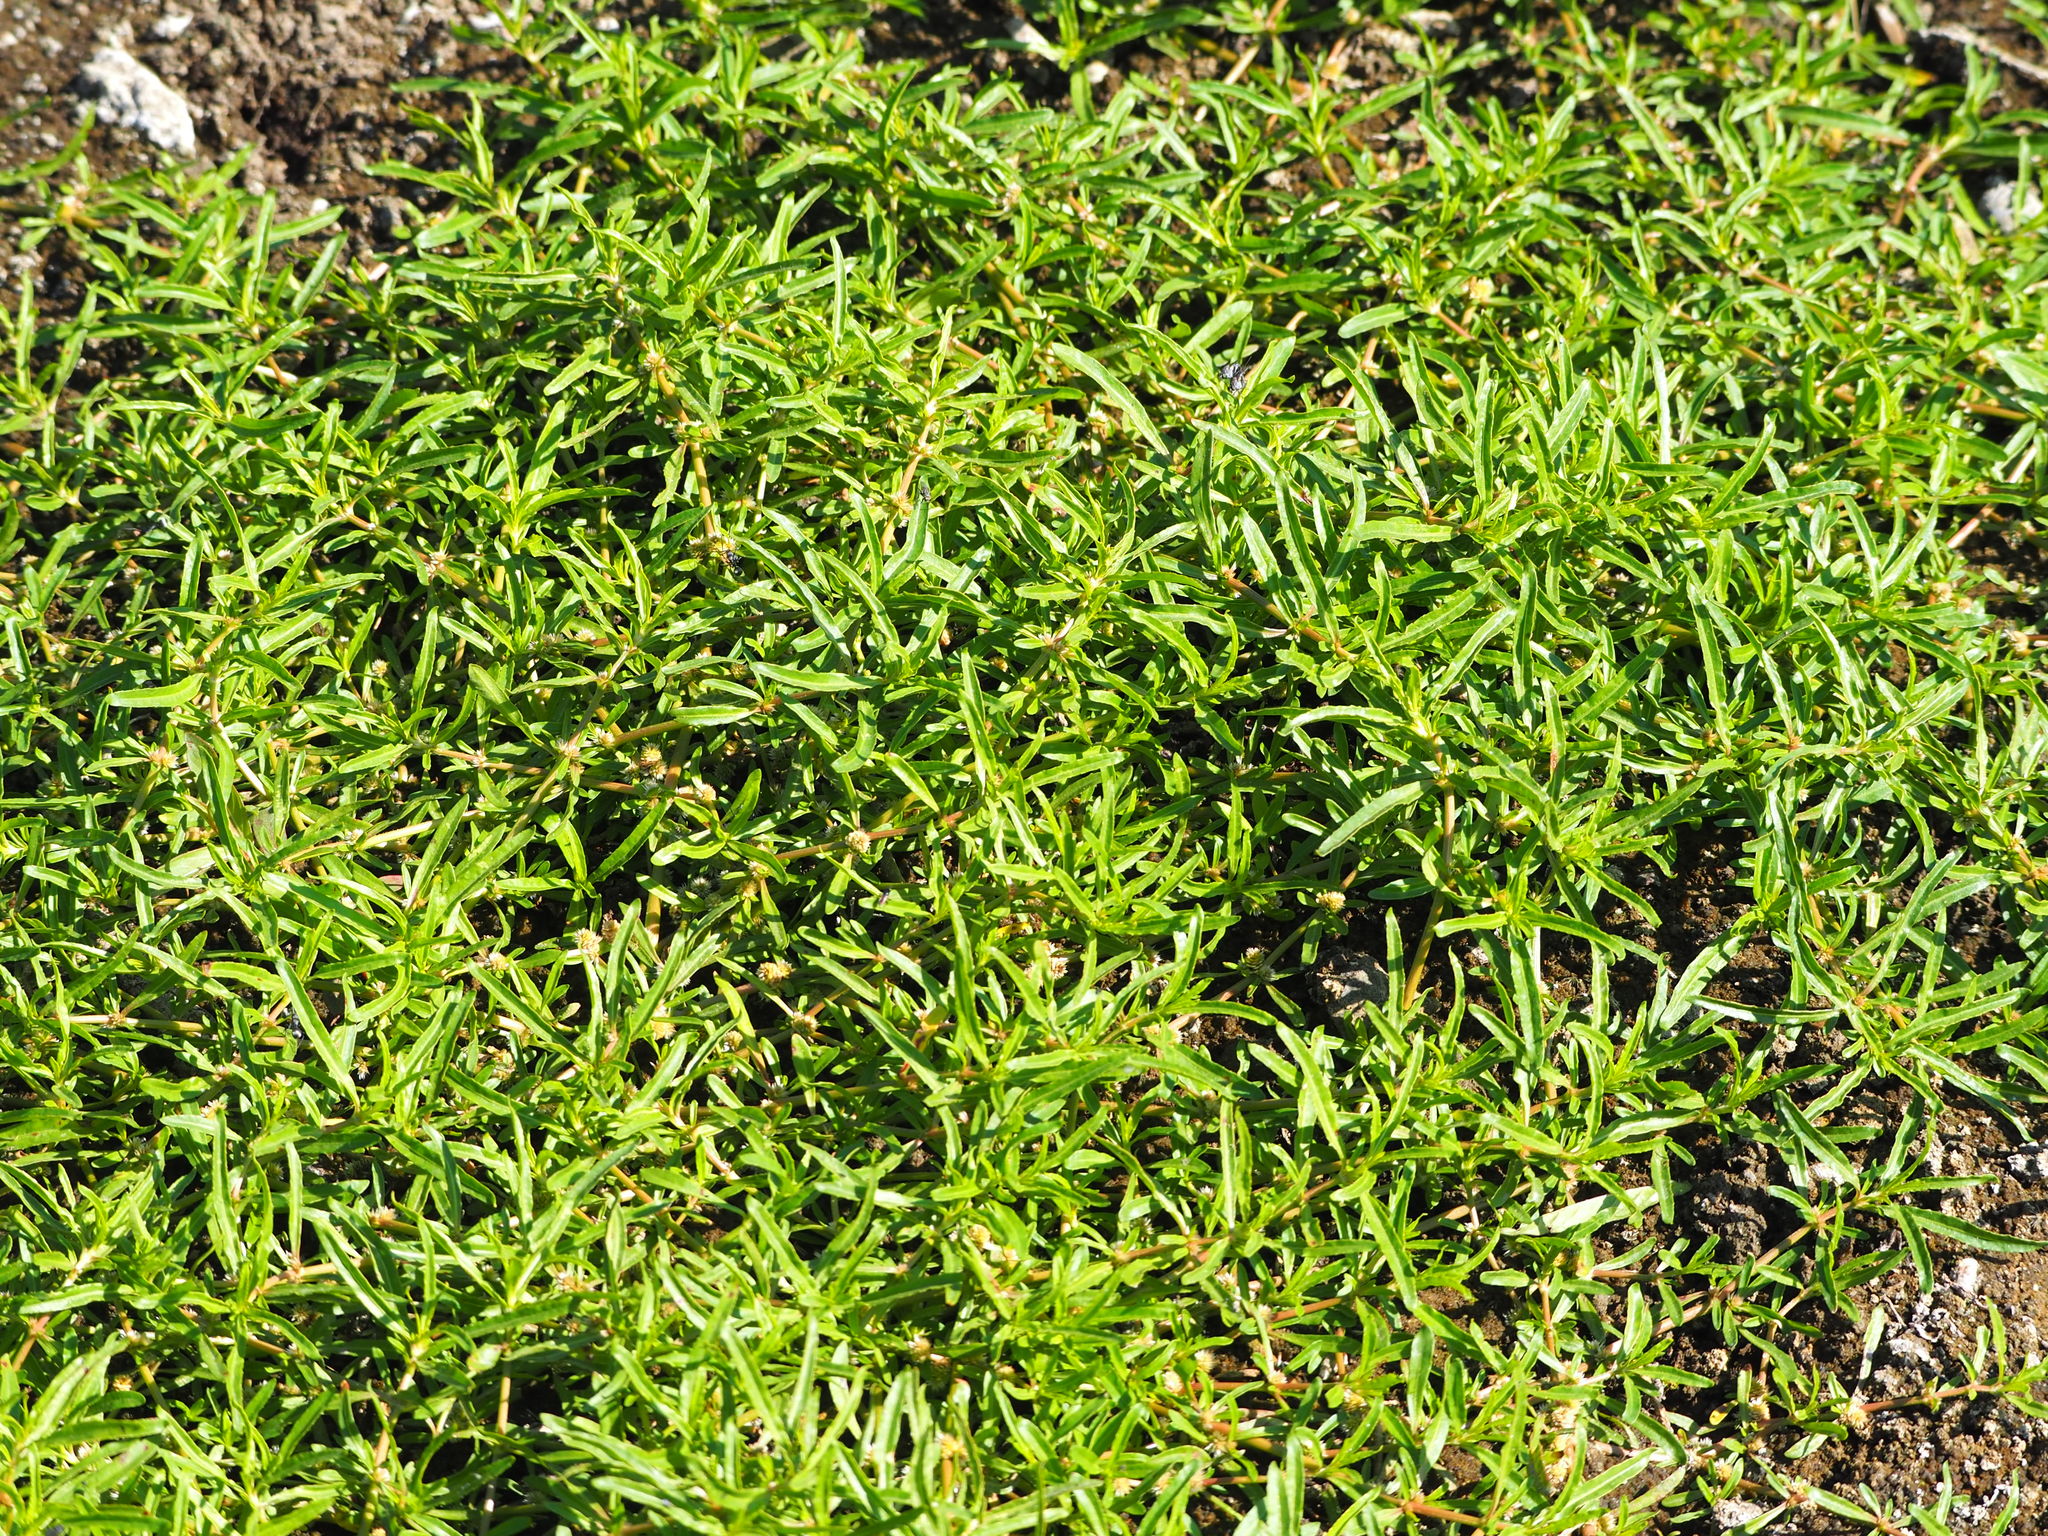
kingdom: Plantae
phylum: Tracheophyta
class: Magnoliopsida
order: Caryophyllales
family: Amaranthaceae
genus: Alternanthera
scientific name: Alternanthera sessilis
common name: Sessile joyweed
